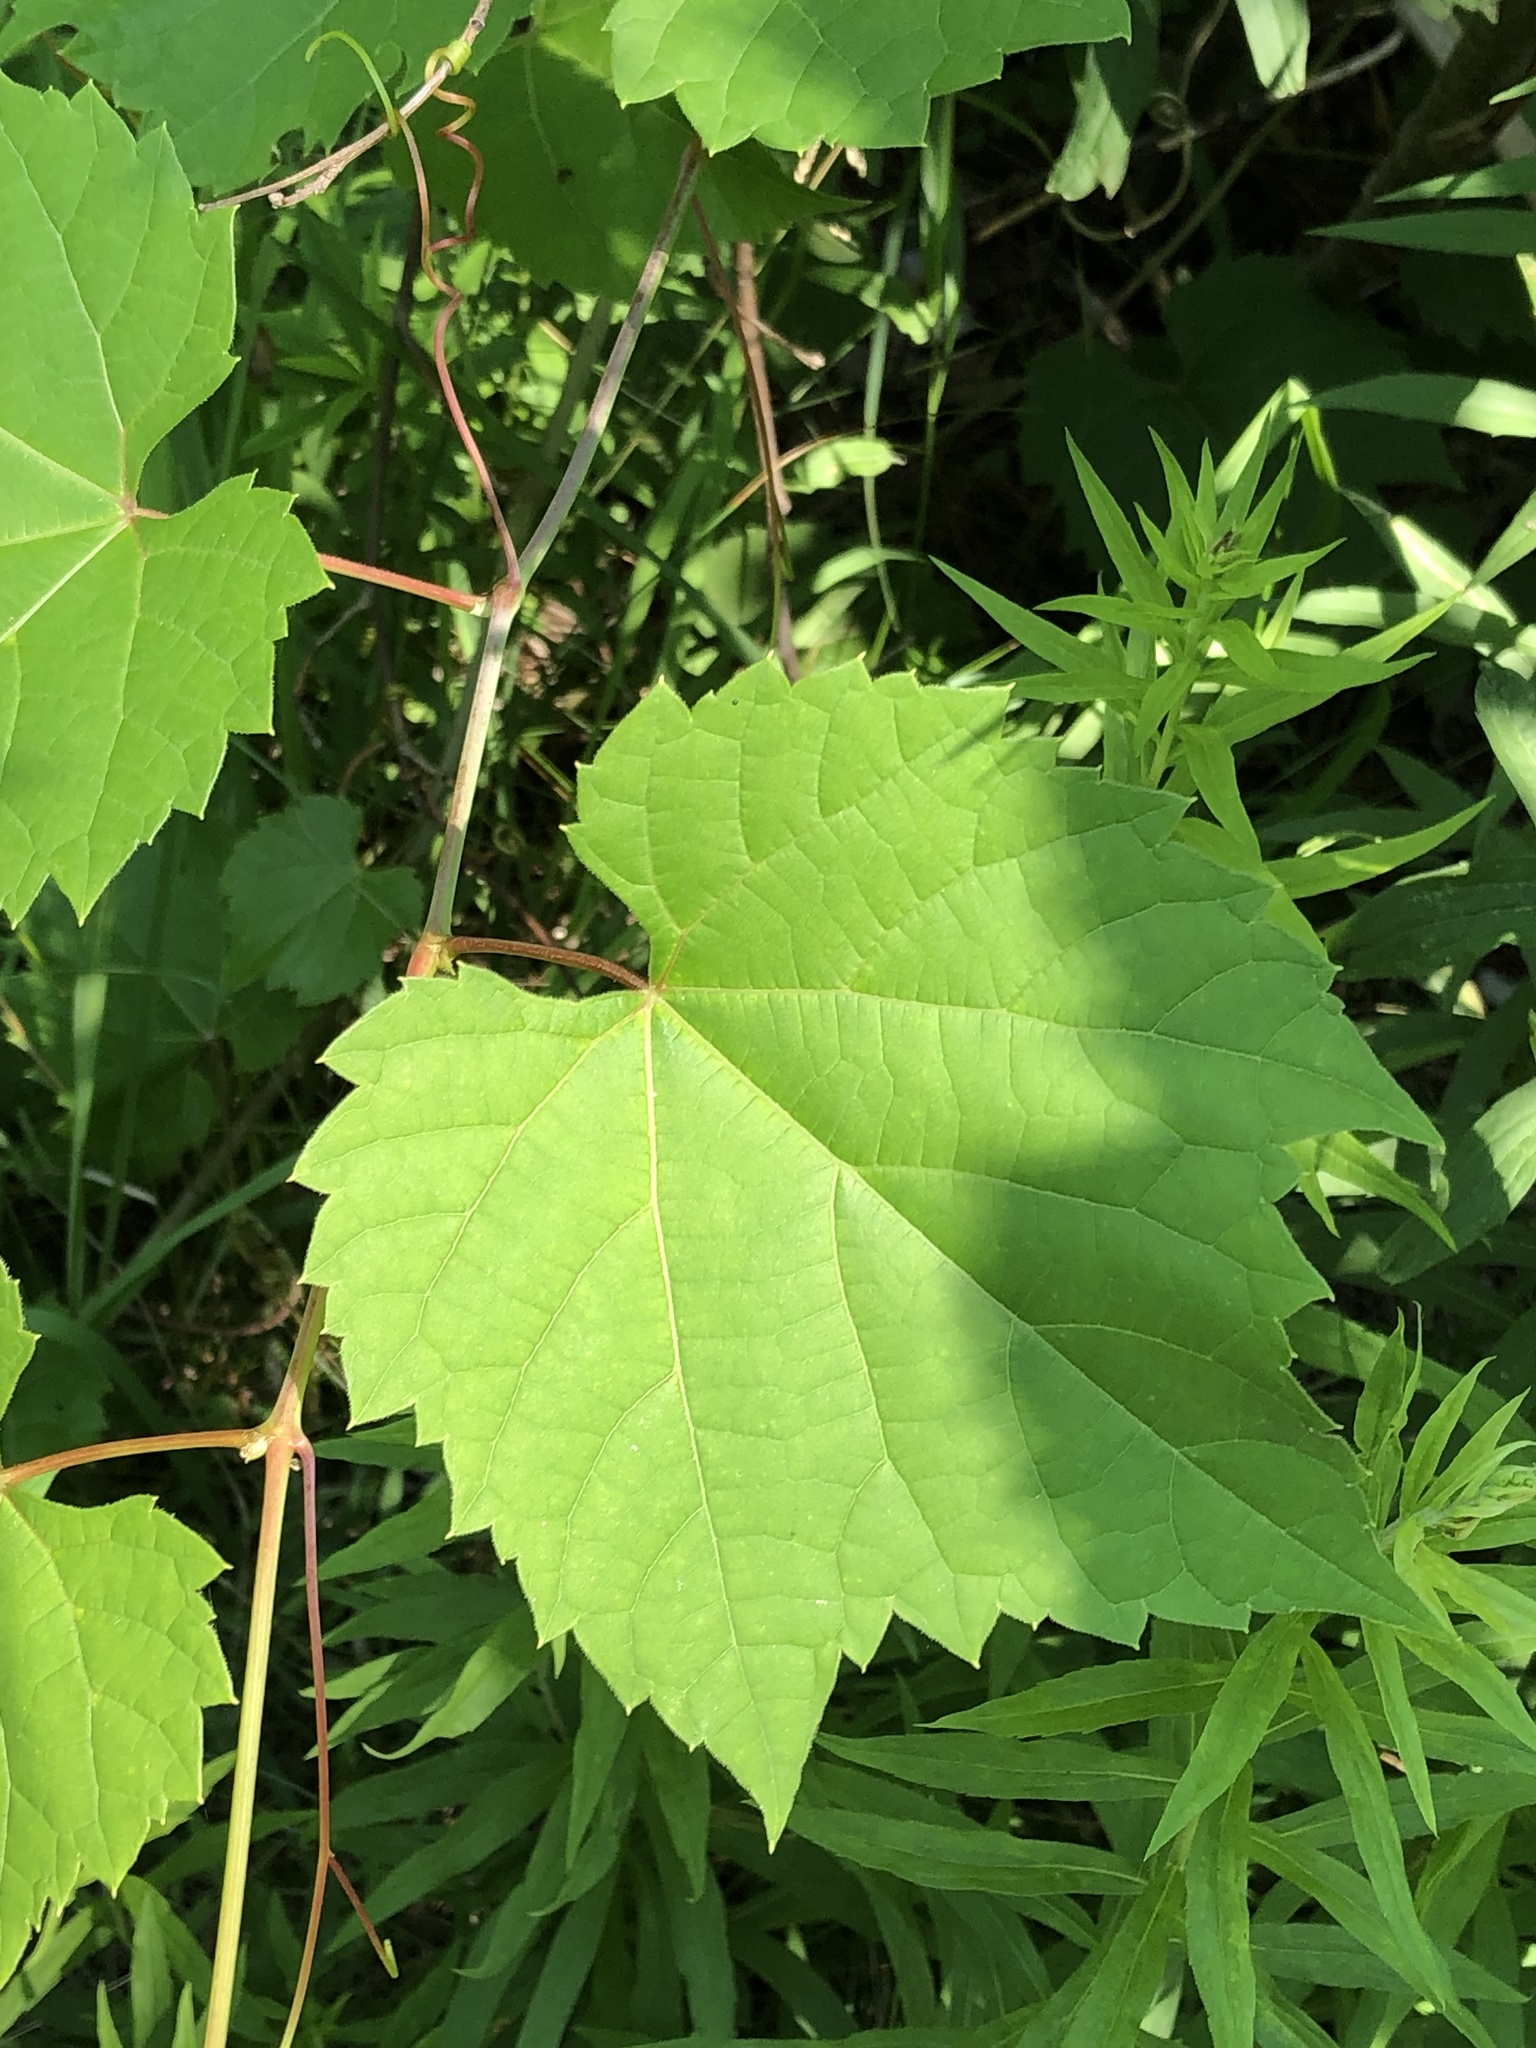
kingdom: Plantae
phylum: Tracheophyta
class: Magnoliopsida
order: Vitales
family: Vitaceae
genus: Vitis
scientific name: Vitis riparia
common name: Frost grape
